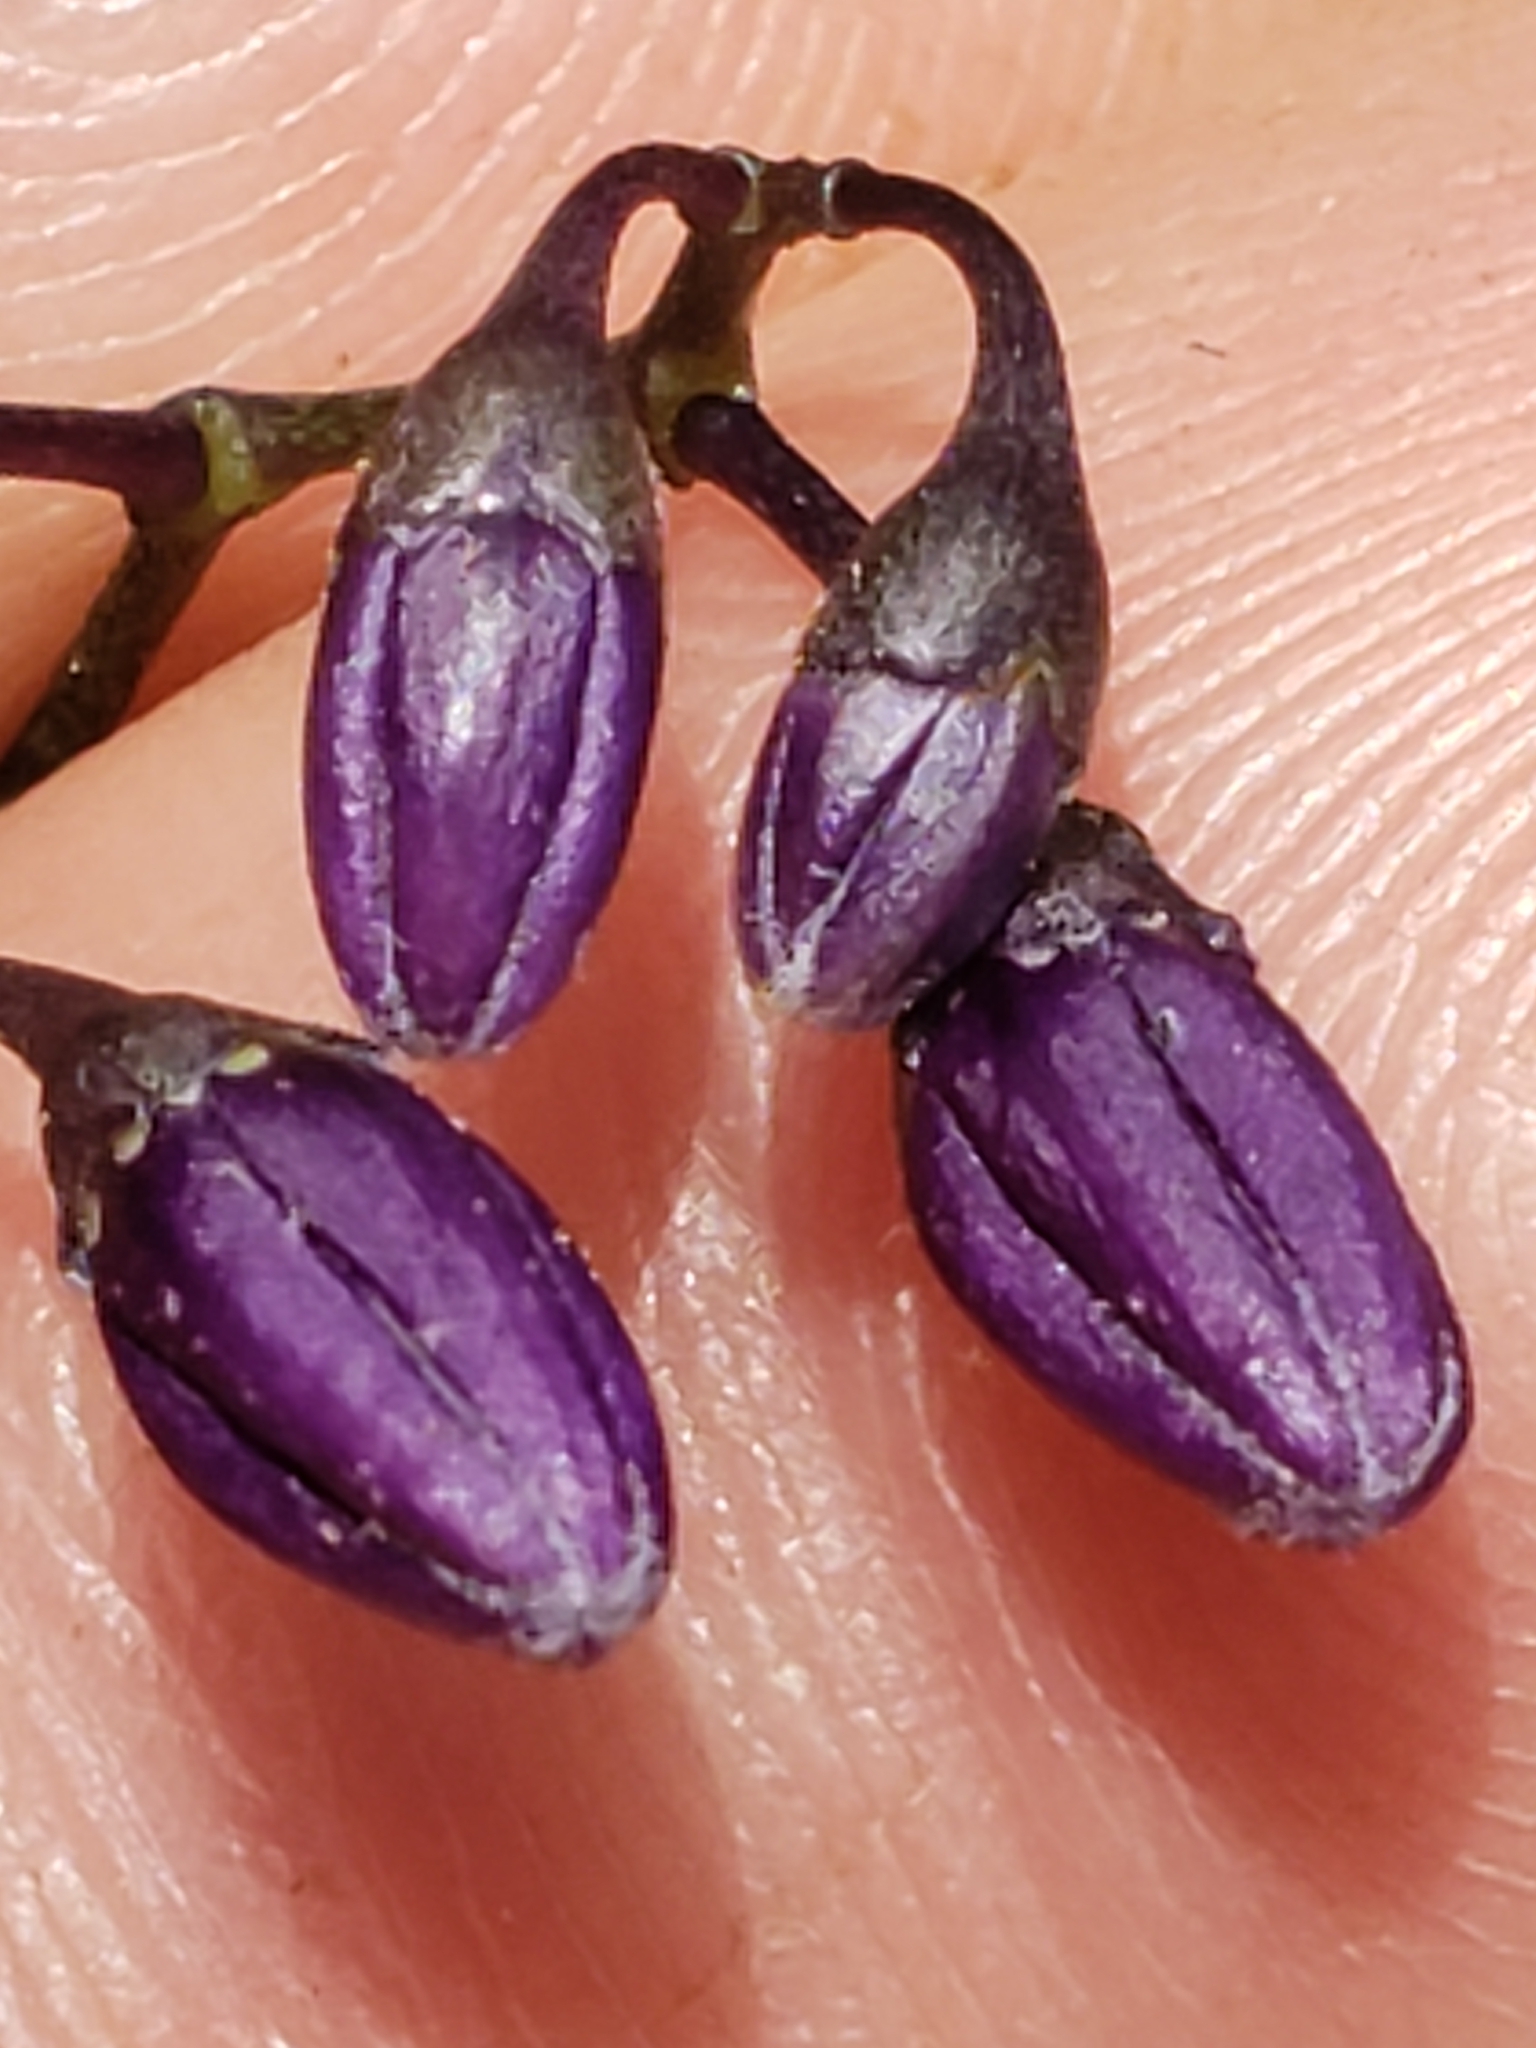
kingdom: Plantae
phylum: Tracheophyta
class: Magnoliopsida
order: Solanales
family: Solanaceae
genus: Solanum
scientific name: Solanum dulcamara
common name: Climbing nightshade
